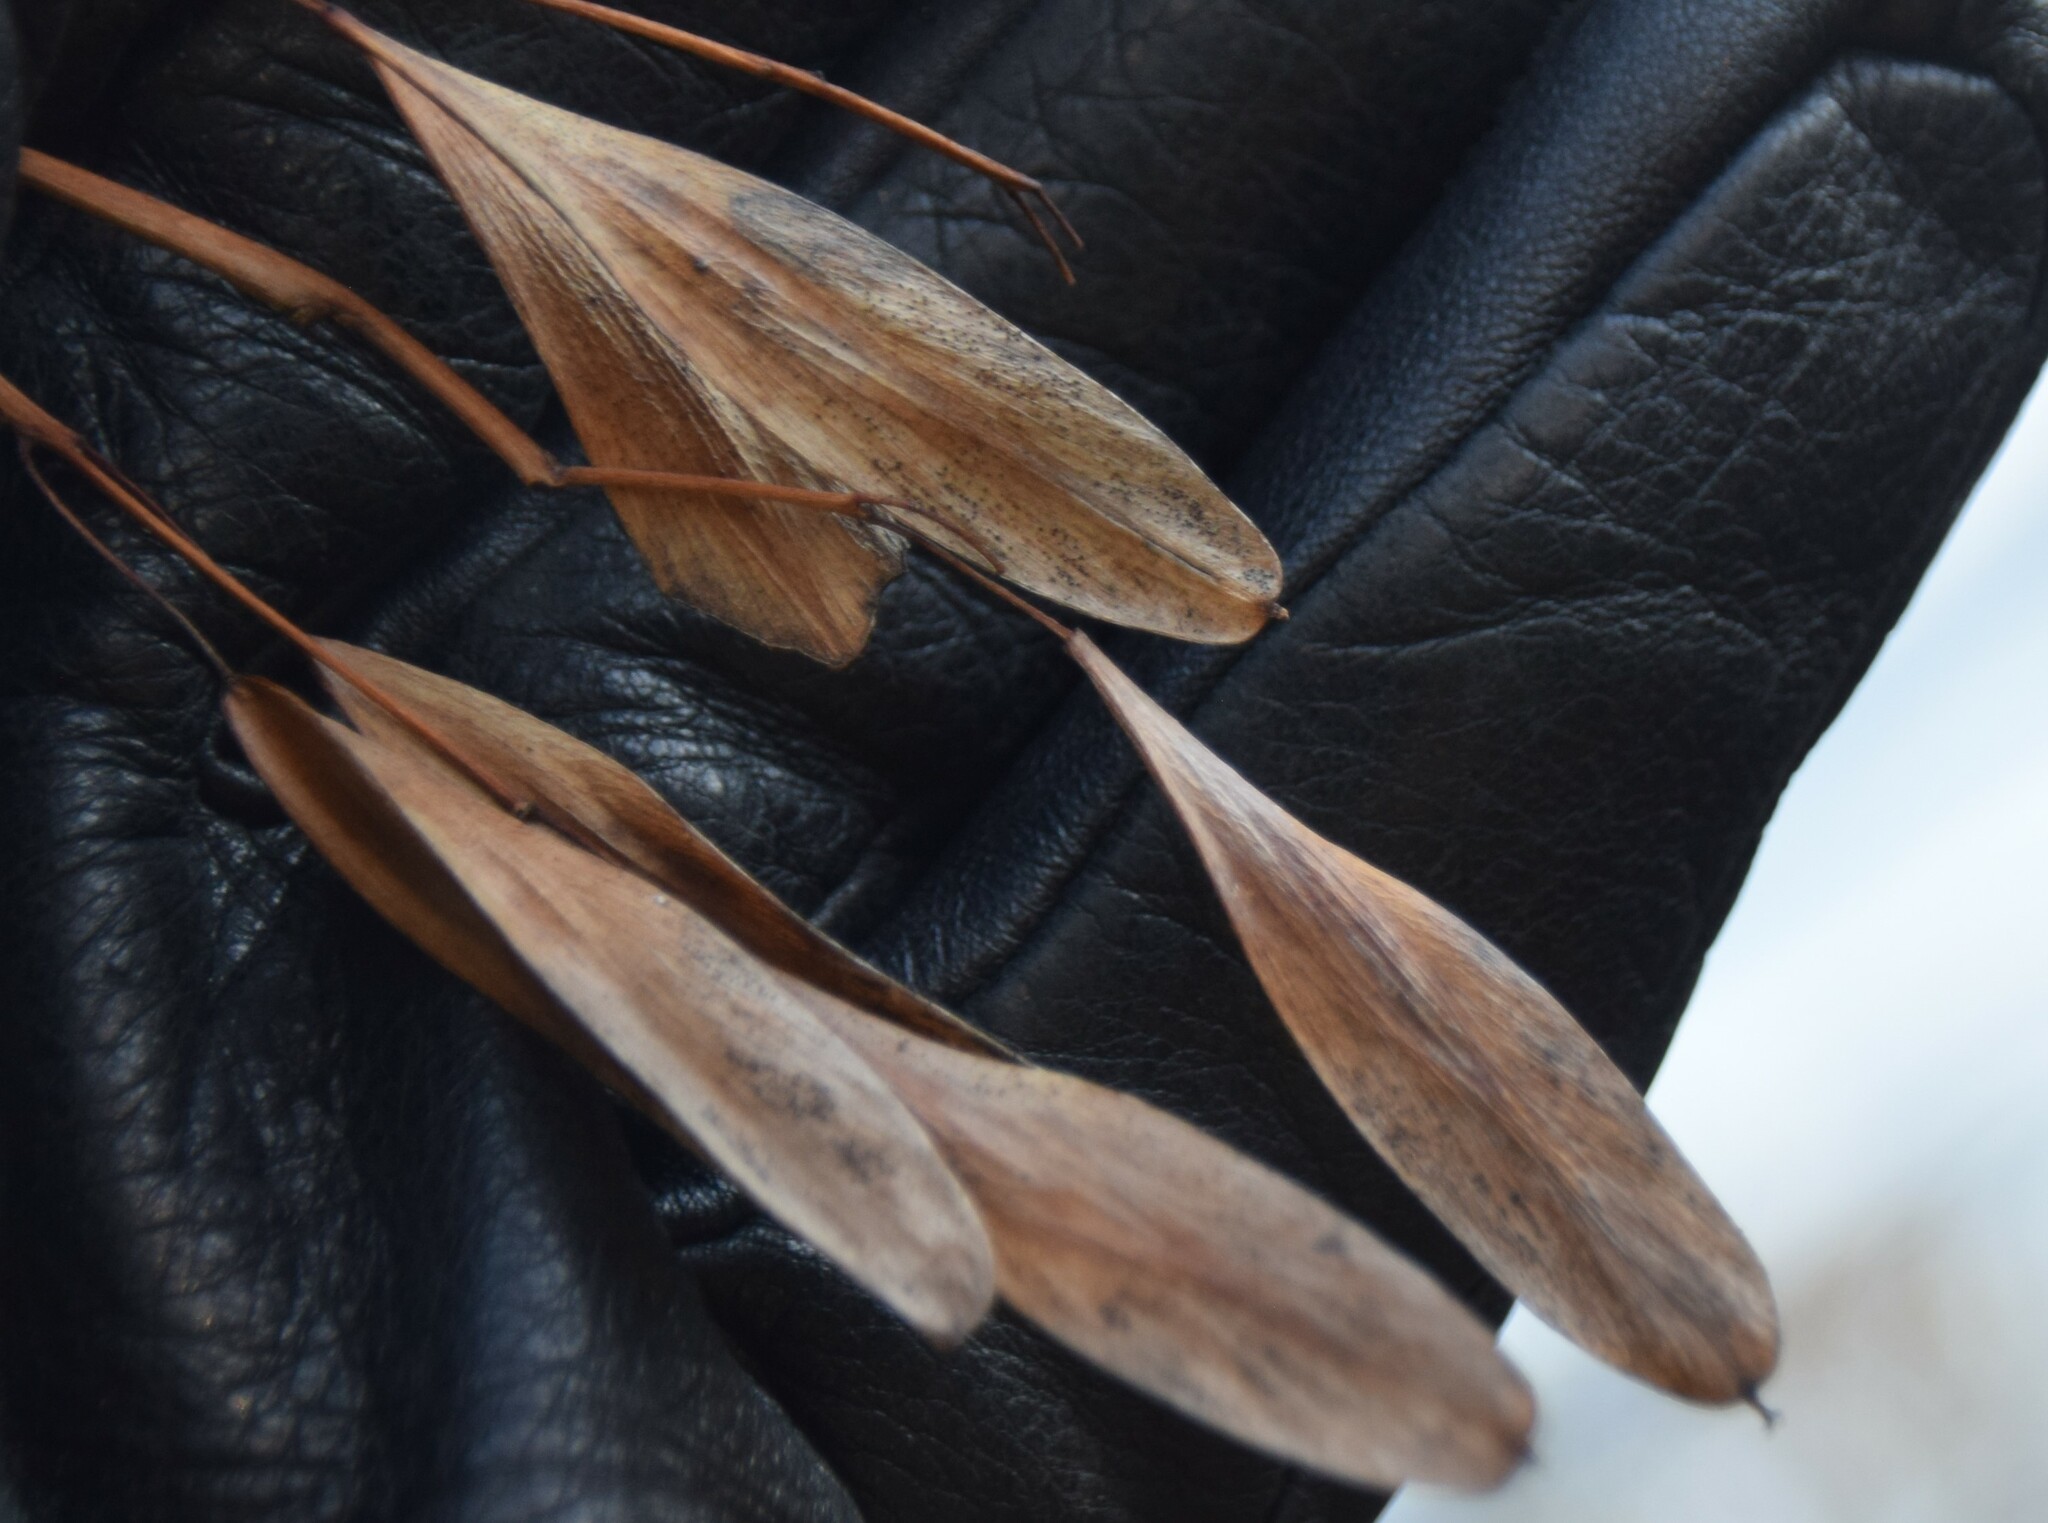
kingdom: Plantae
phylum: Tracheophyta
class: Magnoliopsida
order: Lamiales
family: Oleaceae
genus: Fraxinus
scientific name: Fraxinus nigra
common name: Black ash
